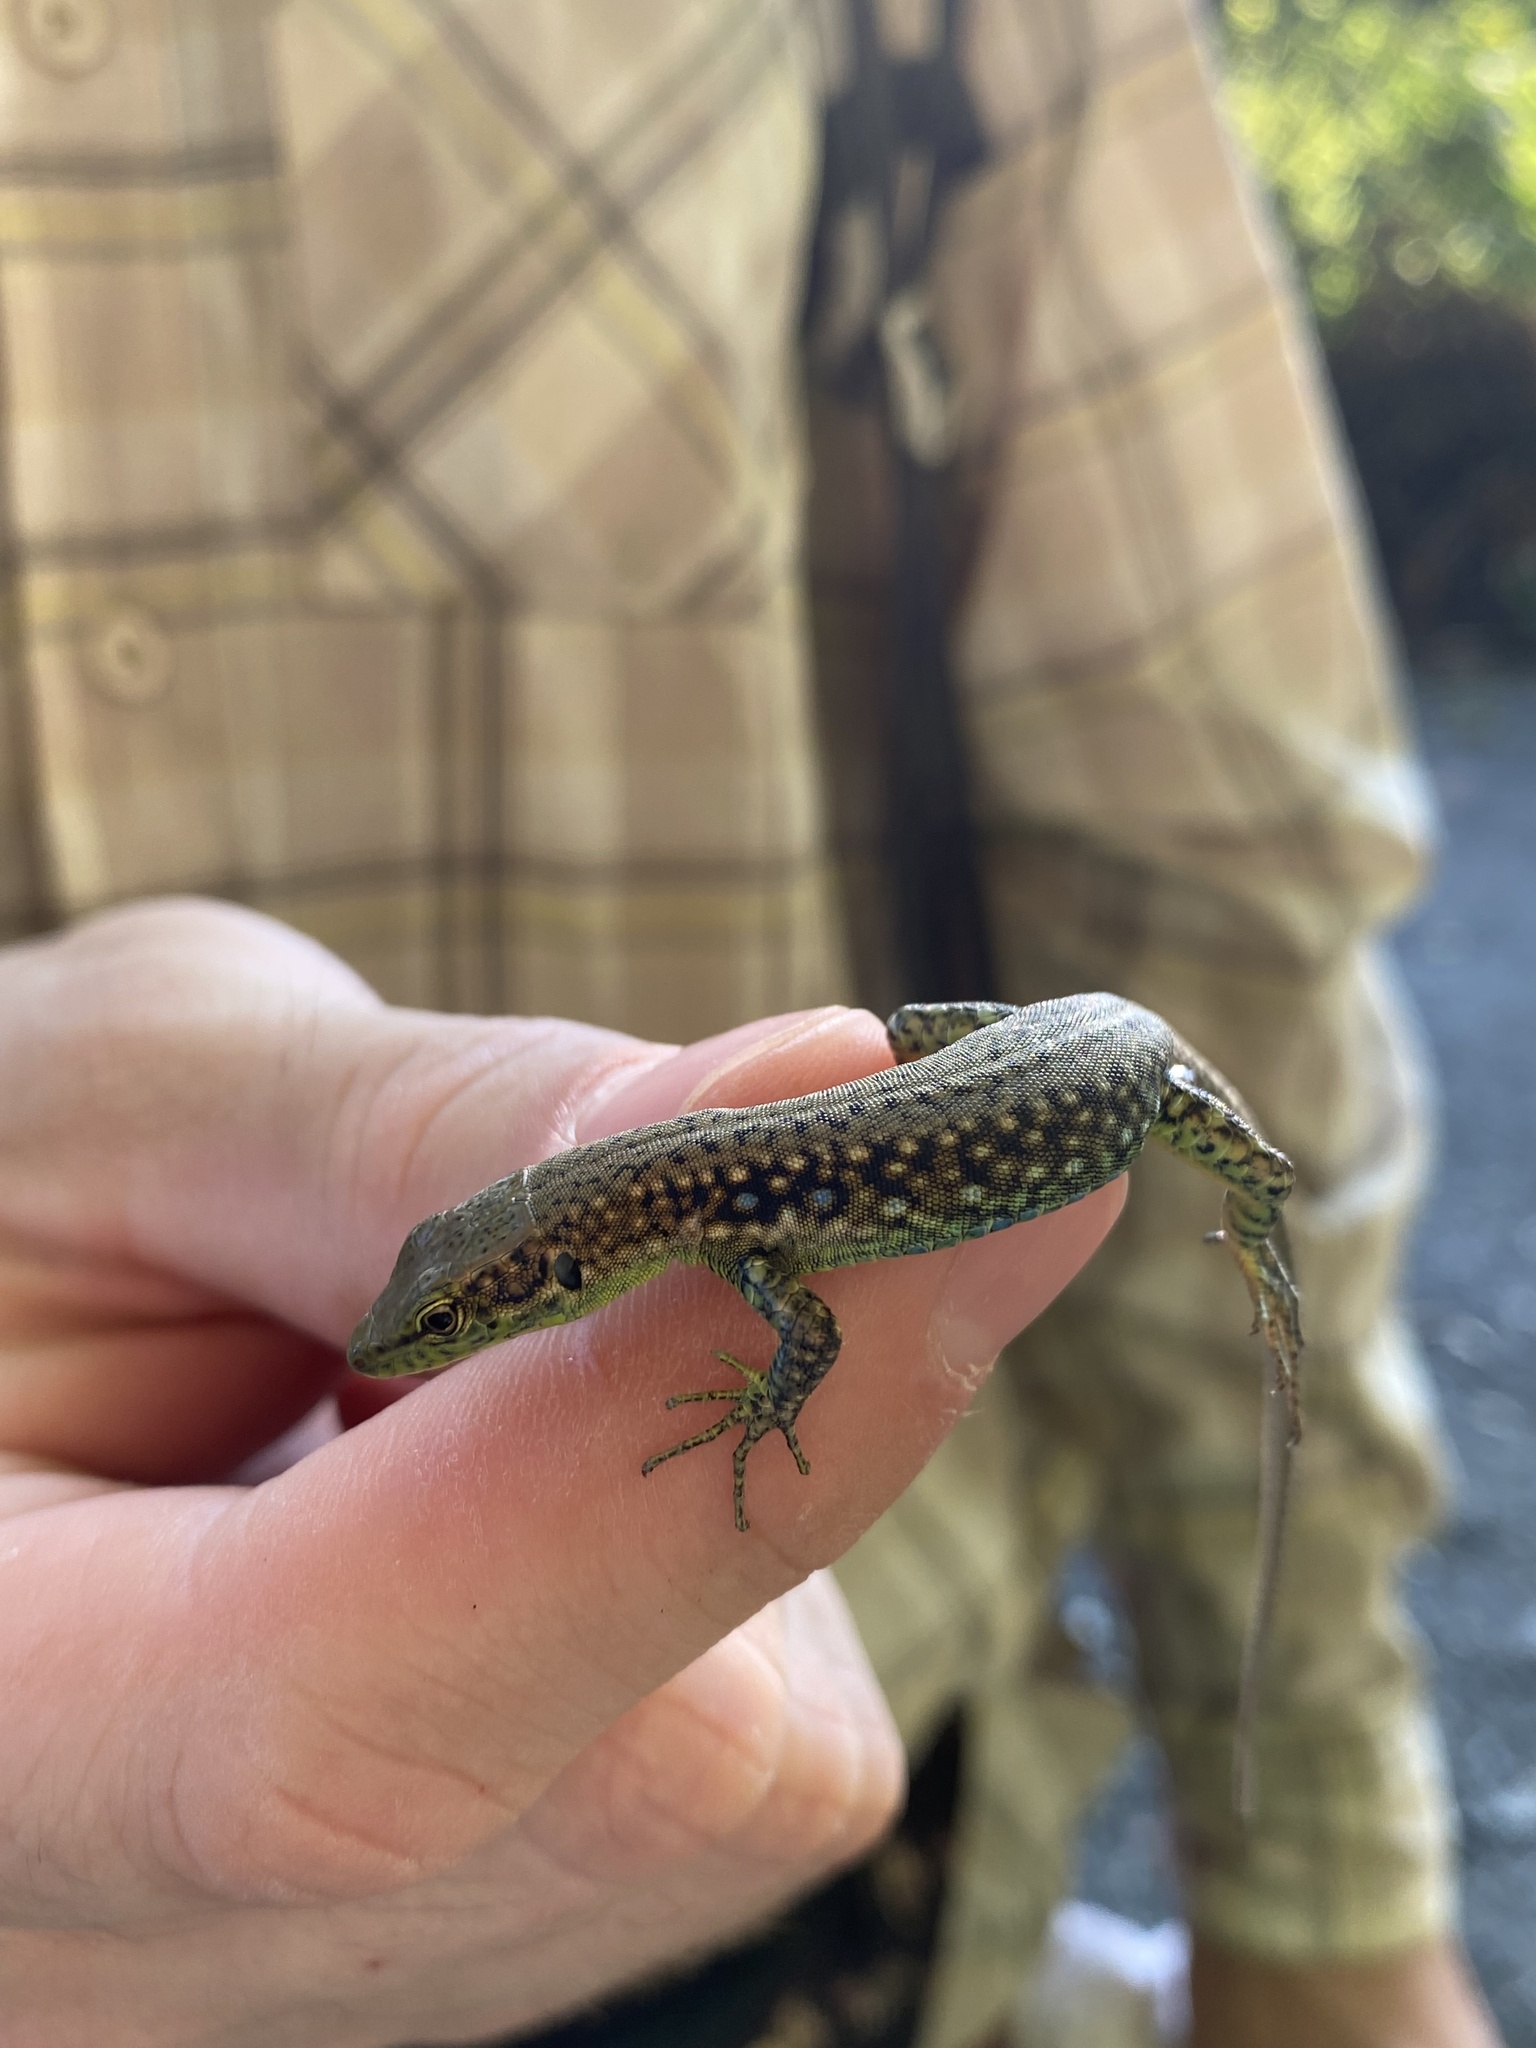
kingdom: Animalia
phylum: Chordata
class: Squamata
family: Lacertidae
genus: Darevskia
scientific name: Darevskia brauneri
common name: Brauner's rock lizard
